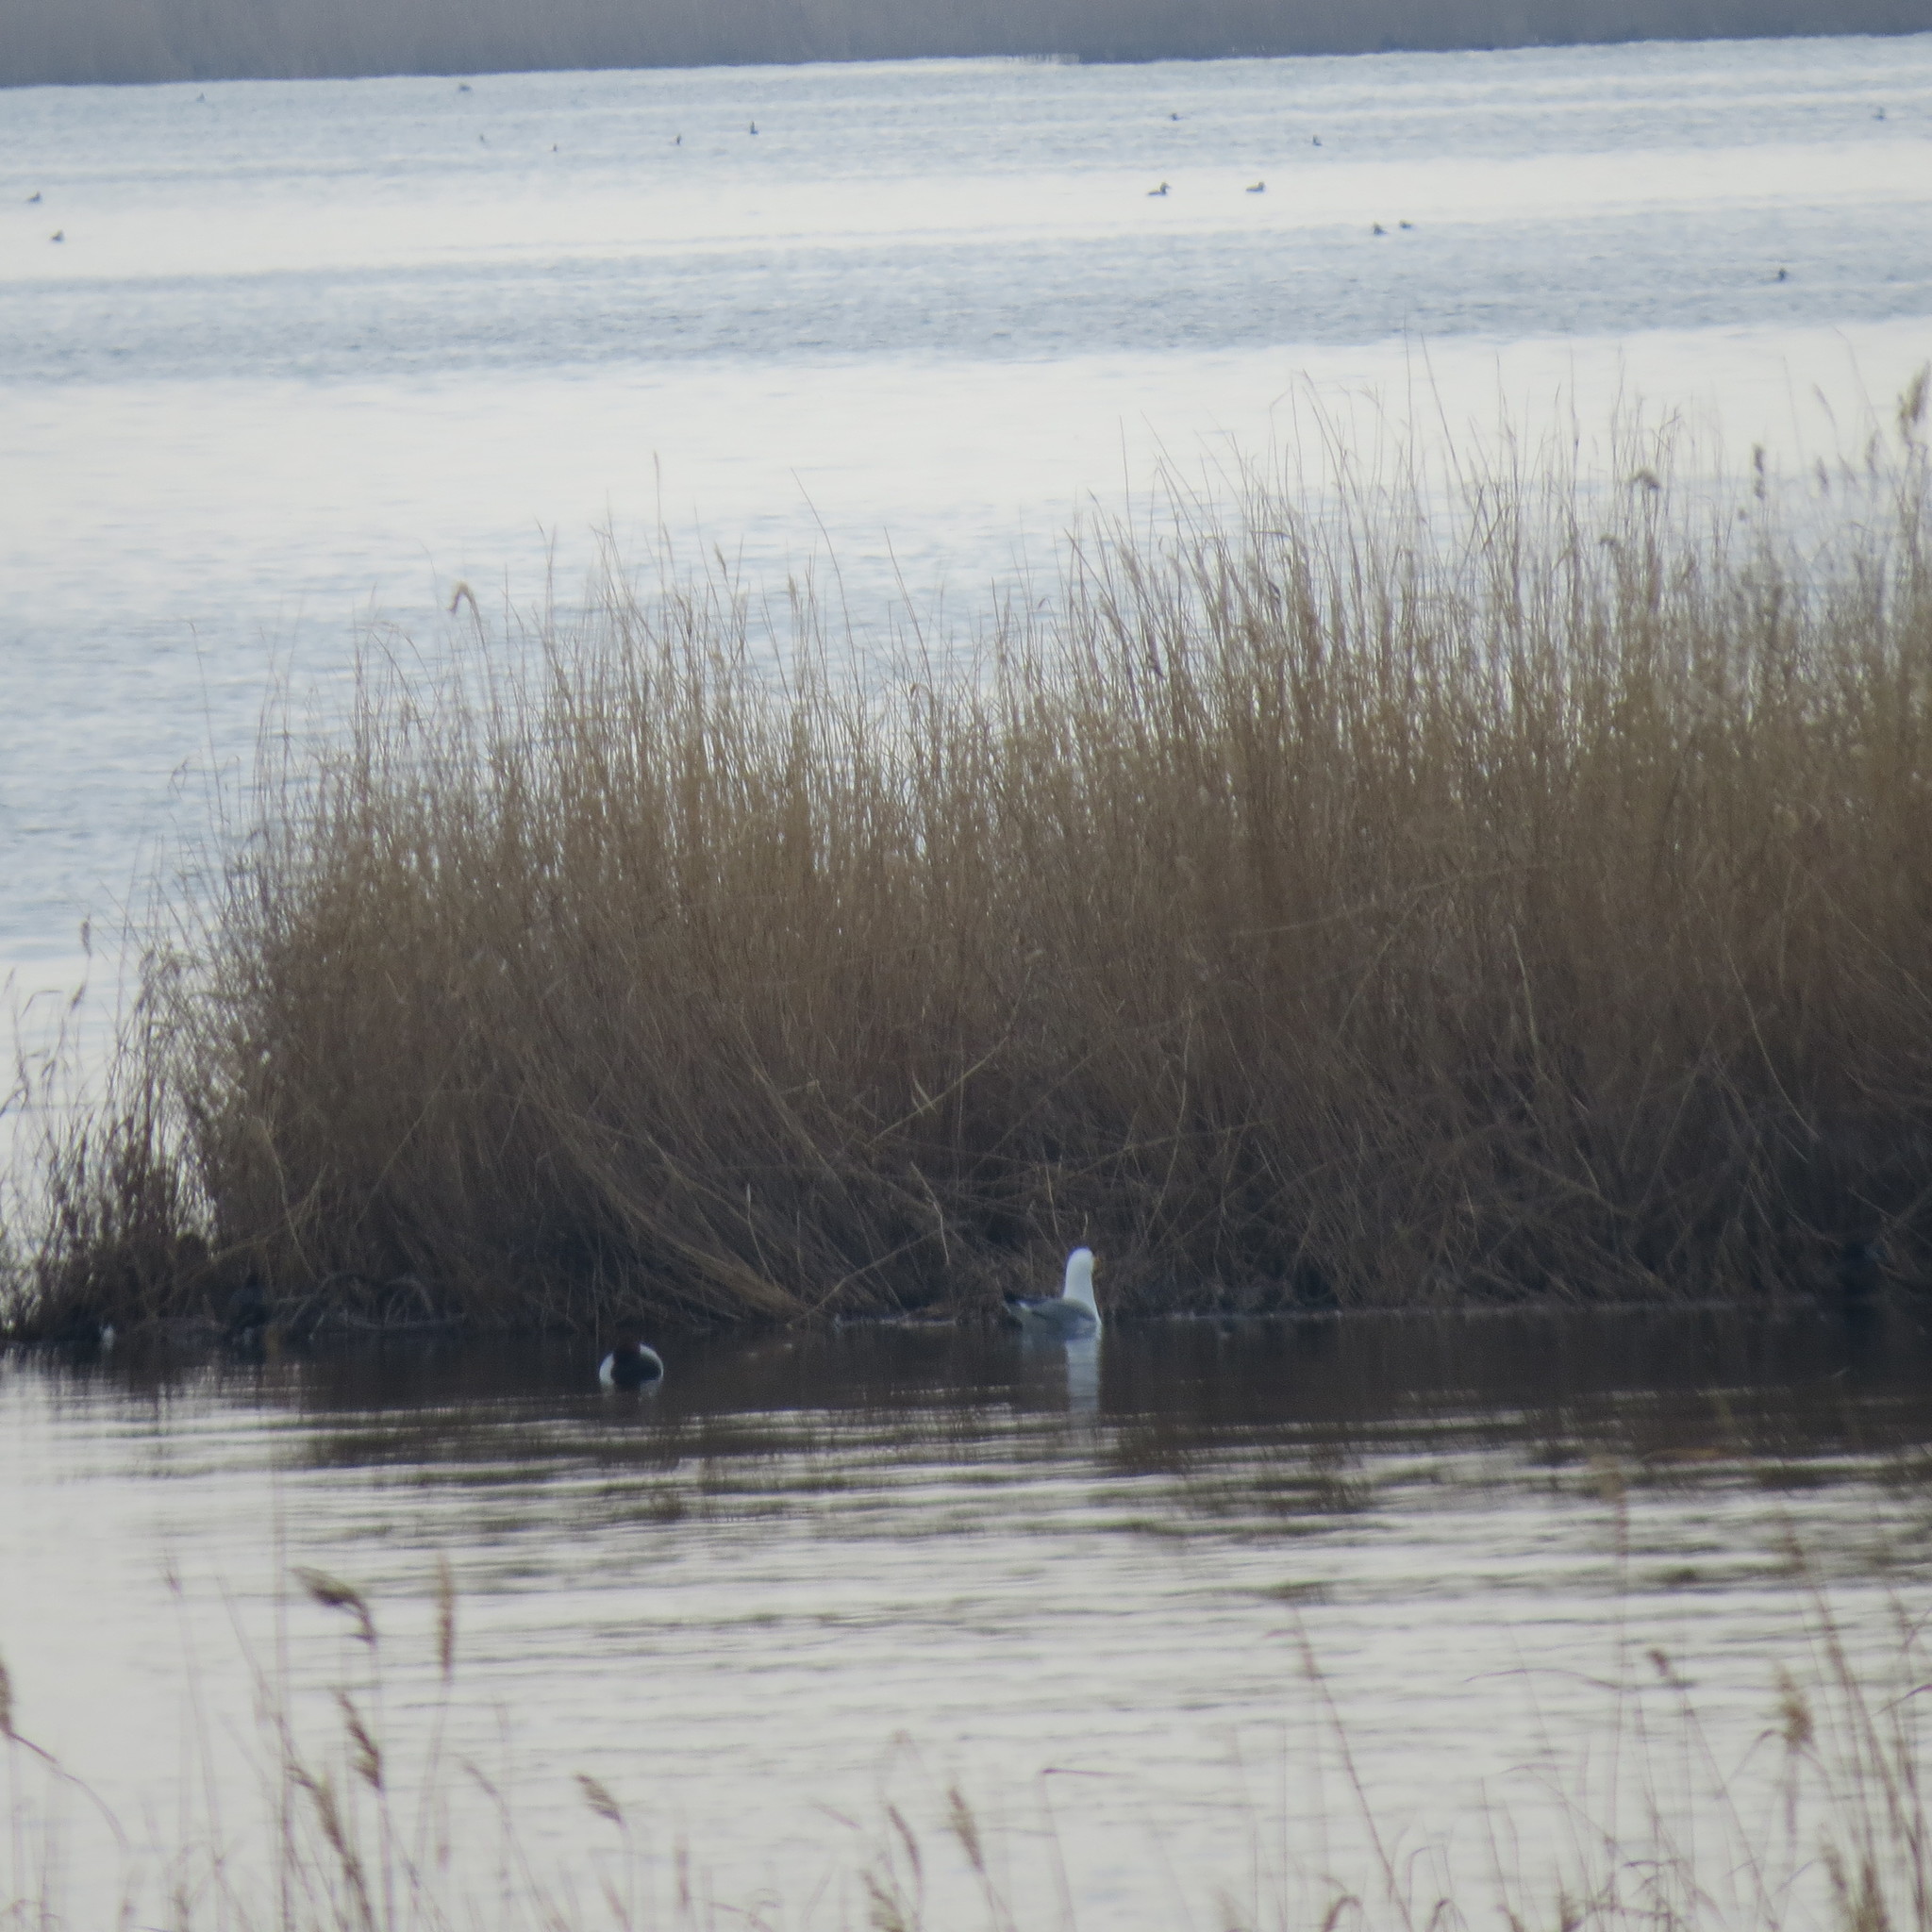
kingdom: Animalia
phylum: Chordata
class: Aves
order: Charadriiformes
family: Laridae
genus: Larus
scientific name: Larus fuscus
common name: Lesser black-backed gull
